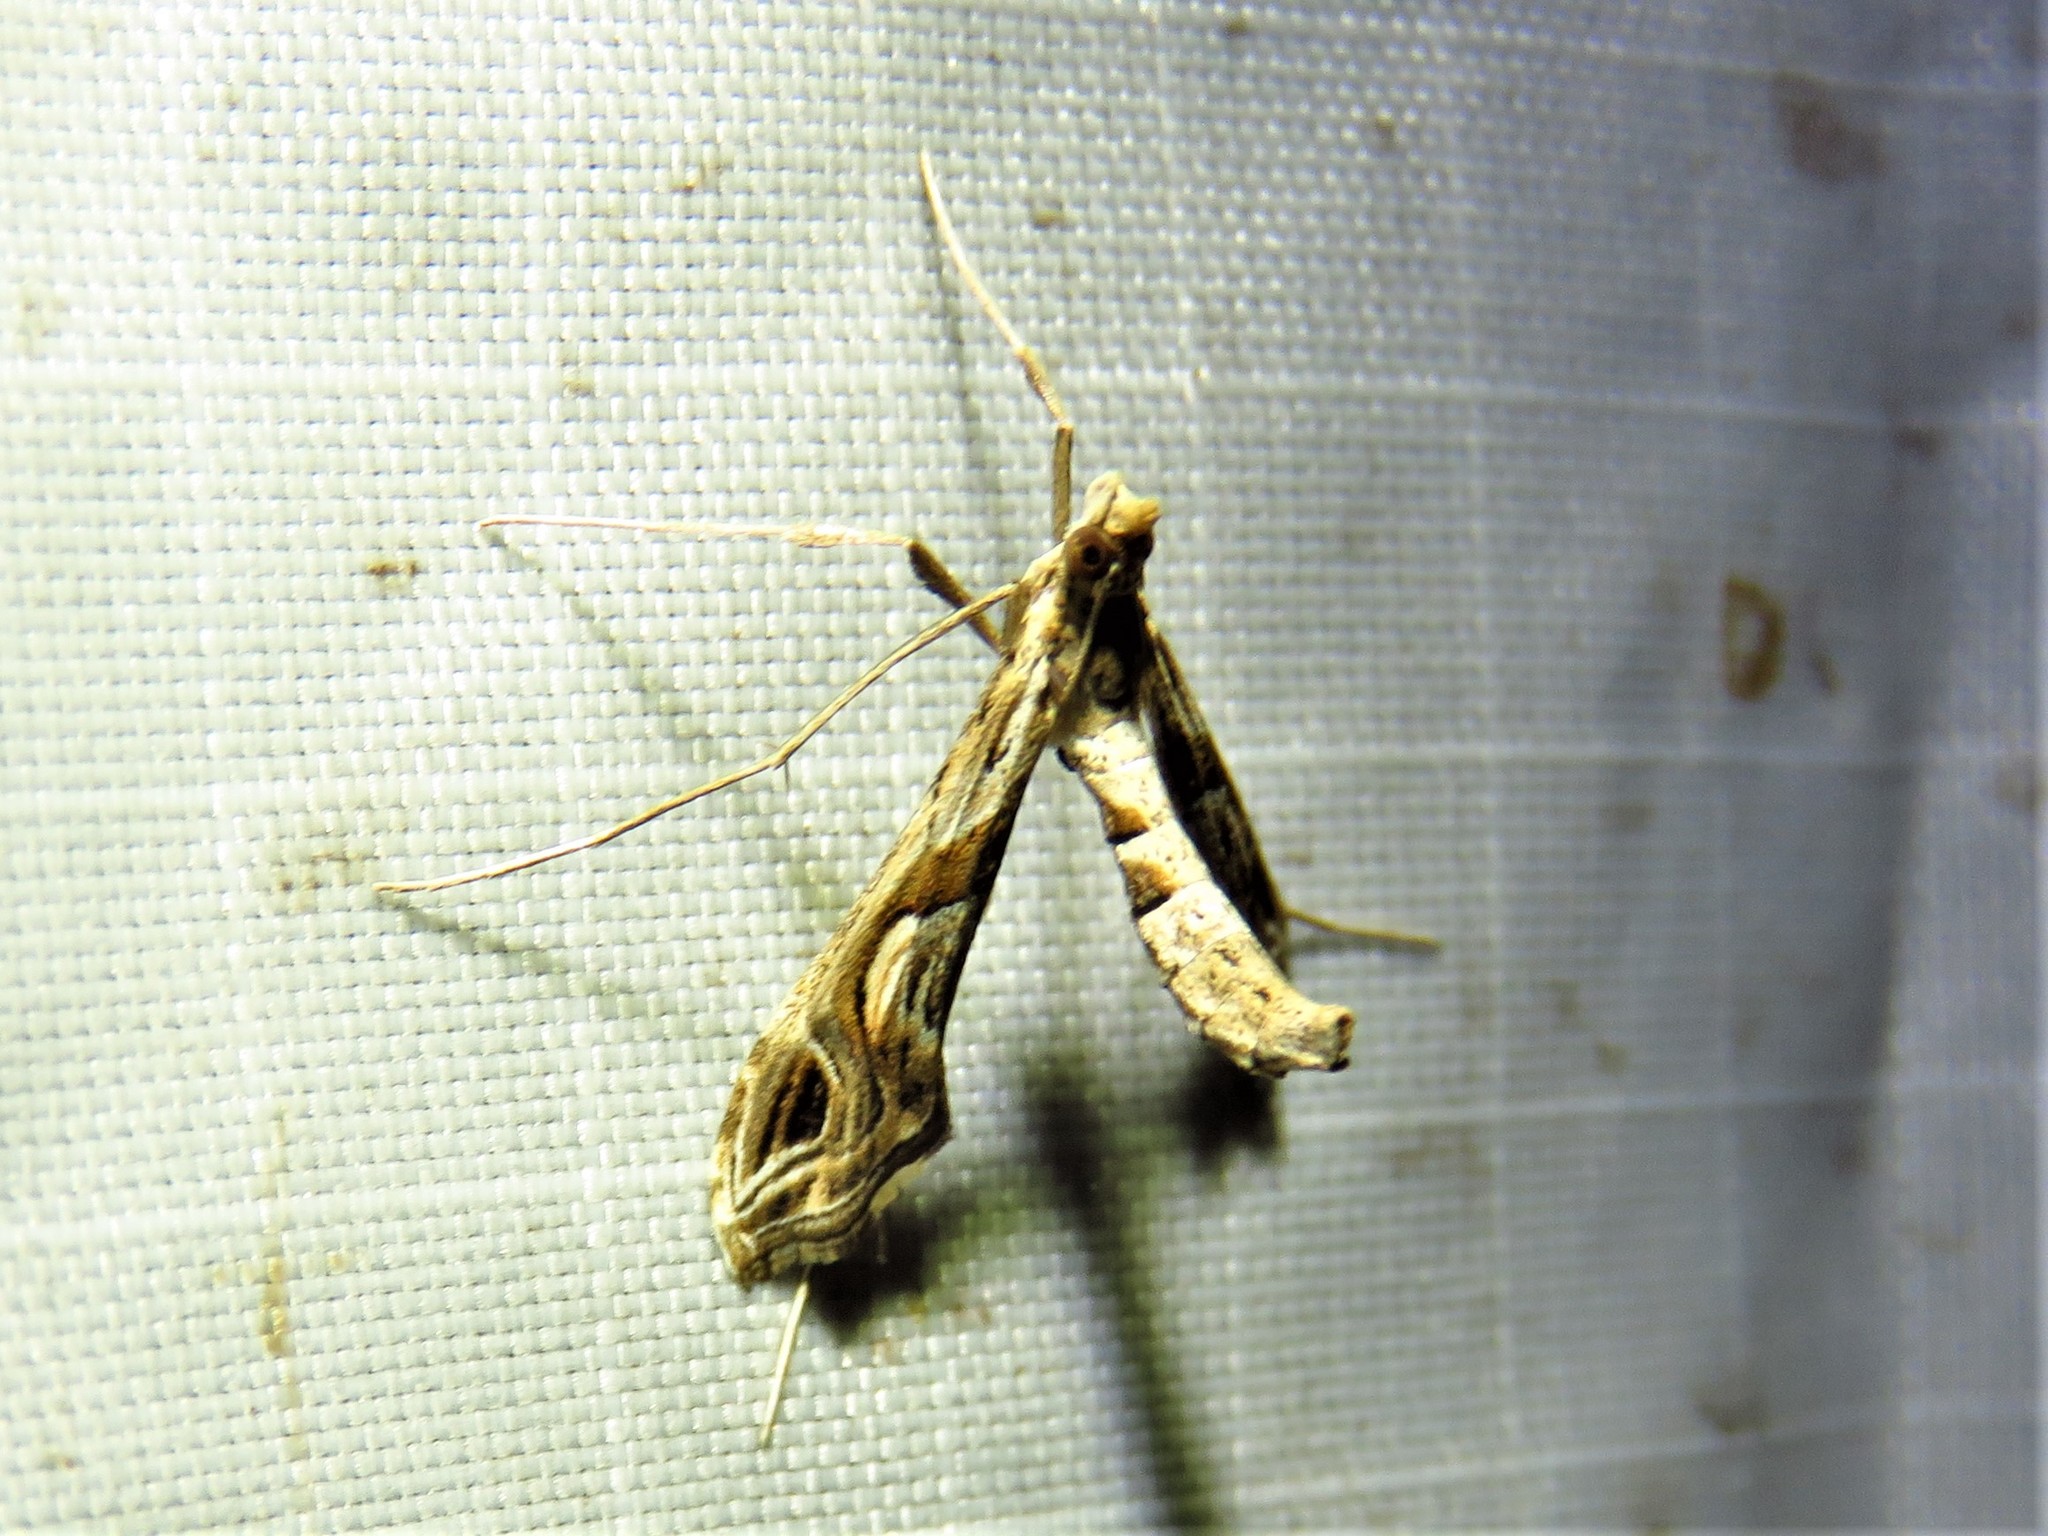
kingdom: Animalia
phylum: Arthropoda
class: Insecta
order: Lepidoptera
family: Crambidae
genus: Lineodes
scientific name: Lineodes integra
